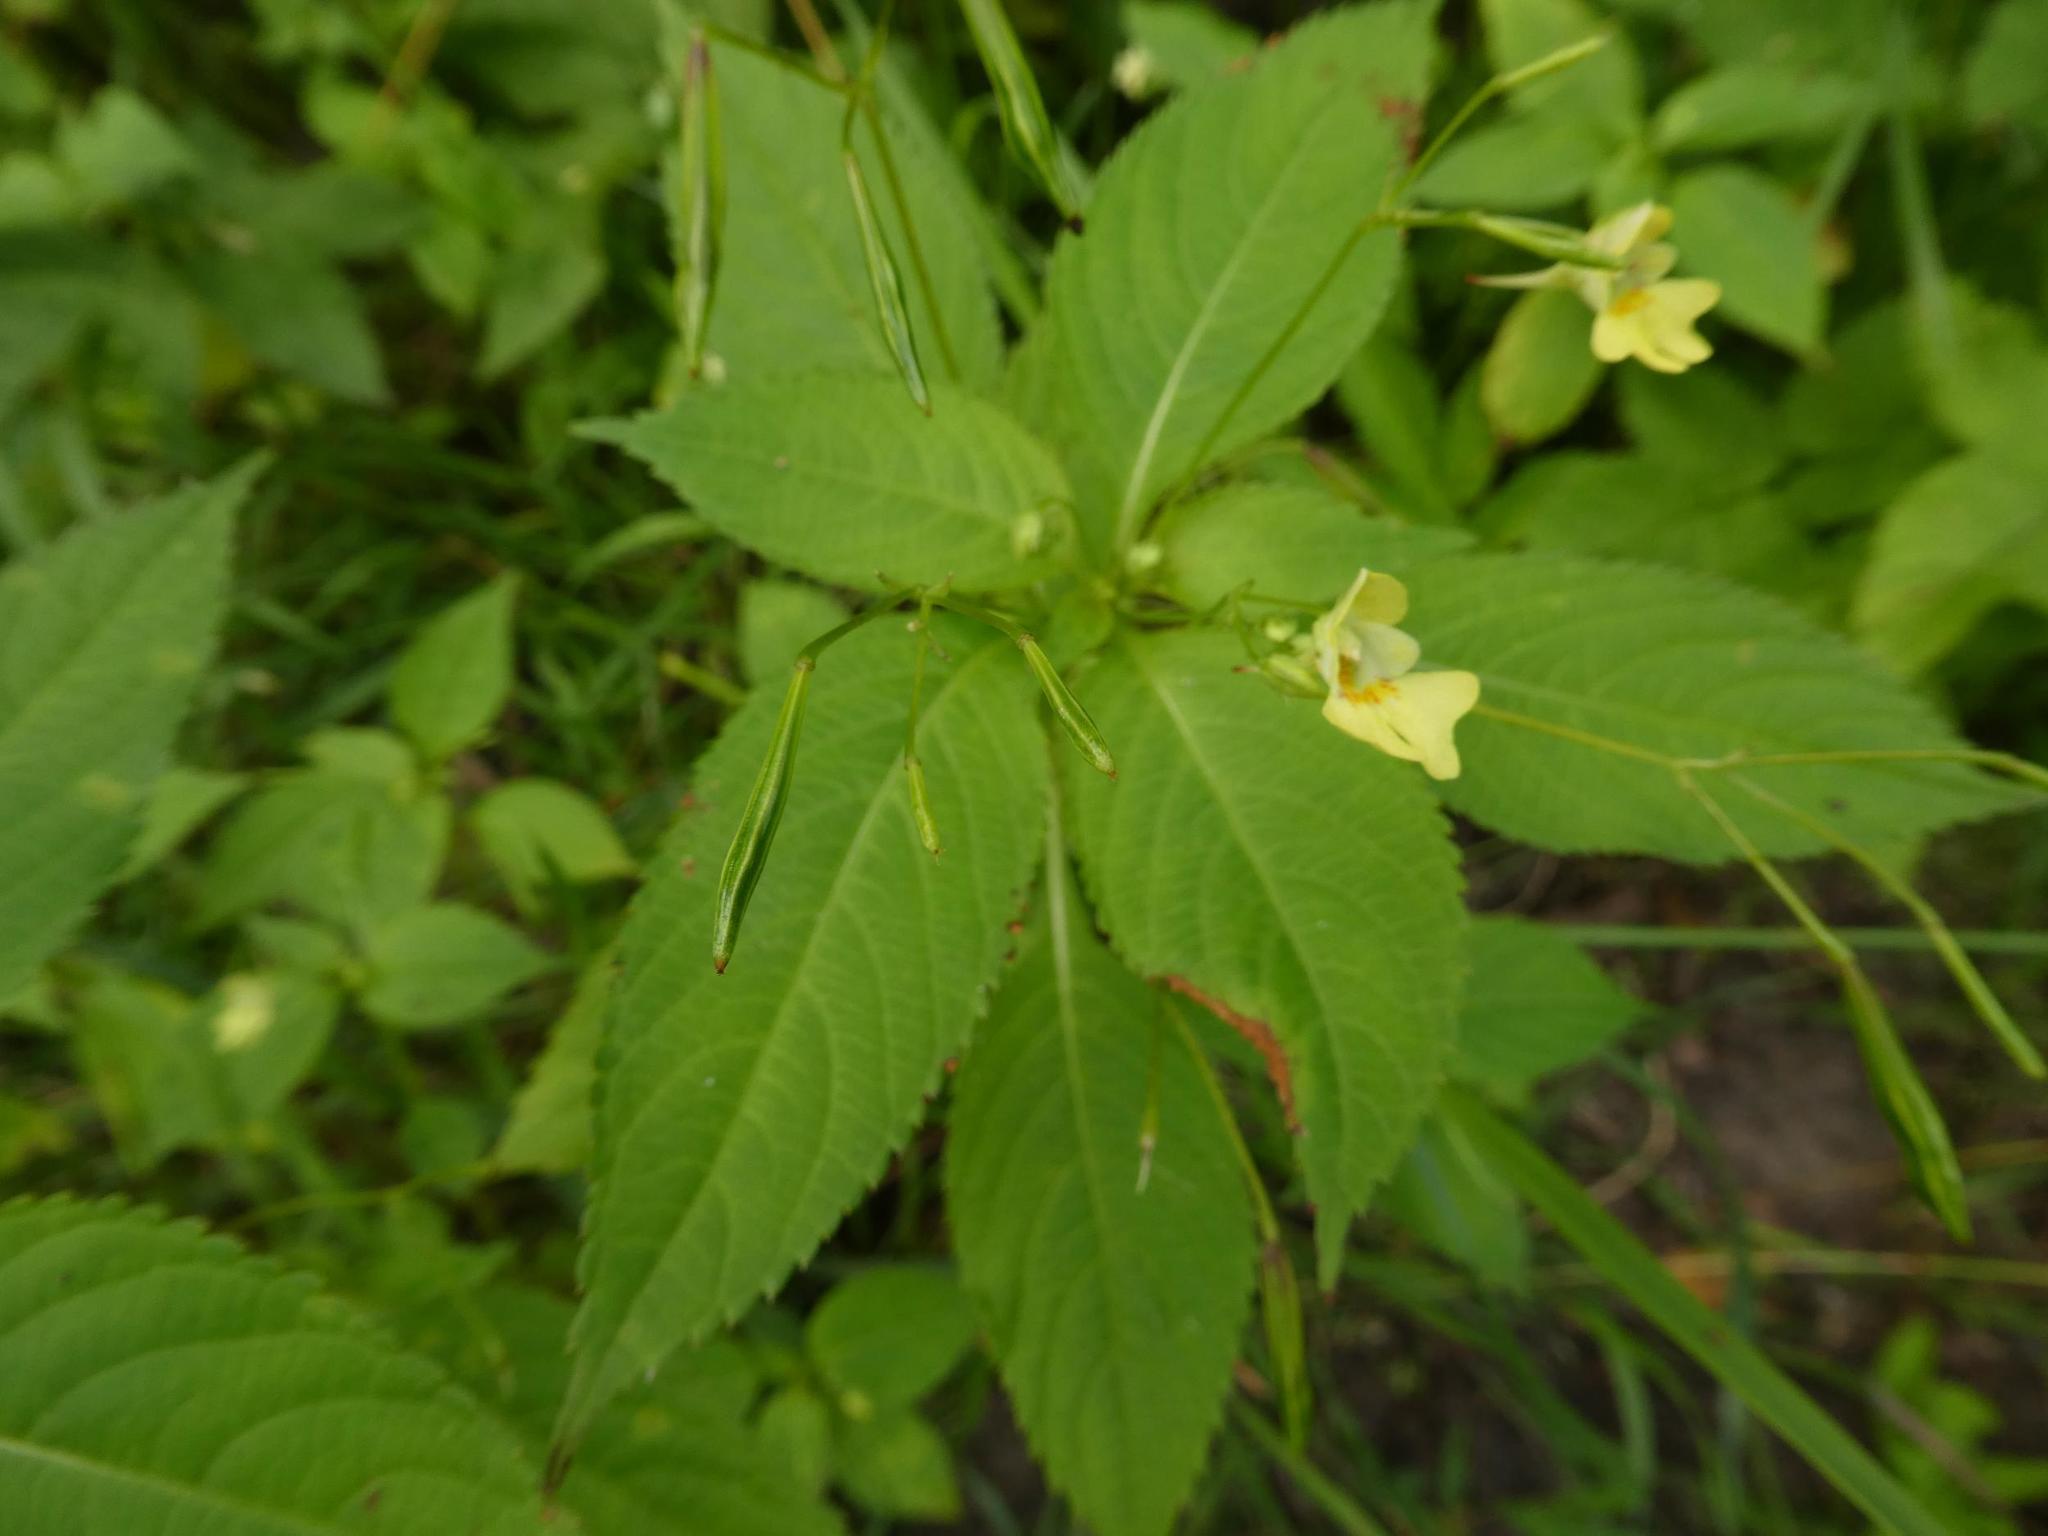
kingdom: Plantae
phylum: Tracheophyta
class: Magnoliopsida
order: Ericales
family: Balsaminaceae
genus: Impatiens
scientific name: Impatiens parviflora
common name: Small balsam
